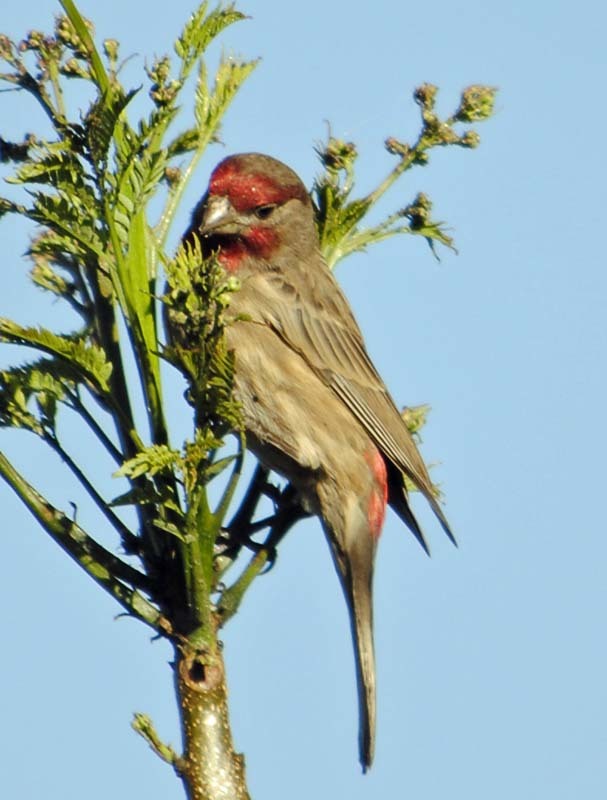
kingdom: Animalia
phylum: Chordata
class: Aves
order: Passeriformes
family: Fringillidae
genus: Haemorhous
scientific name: Haemorhous mexicanus
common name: House finch
